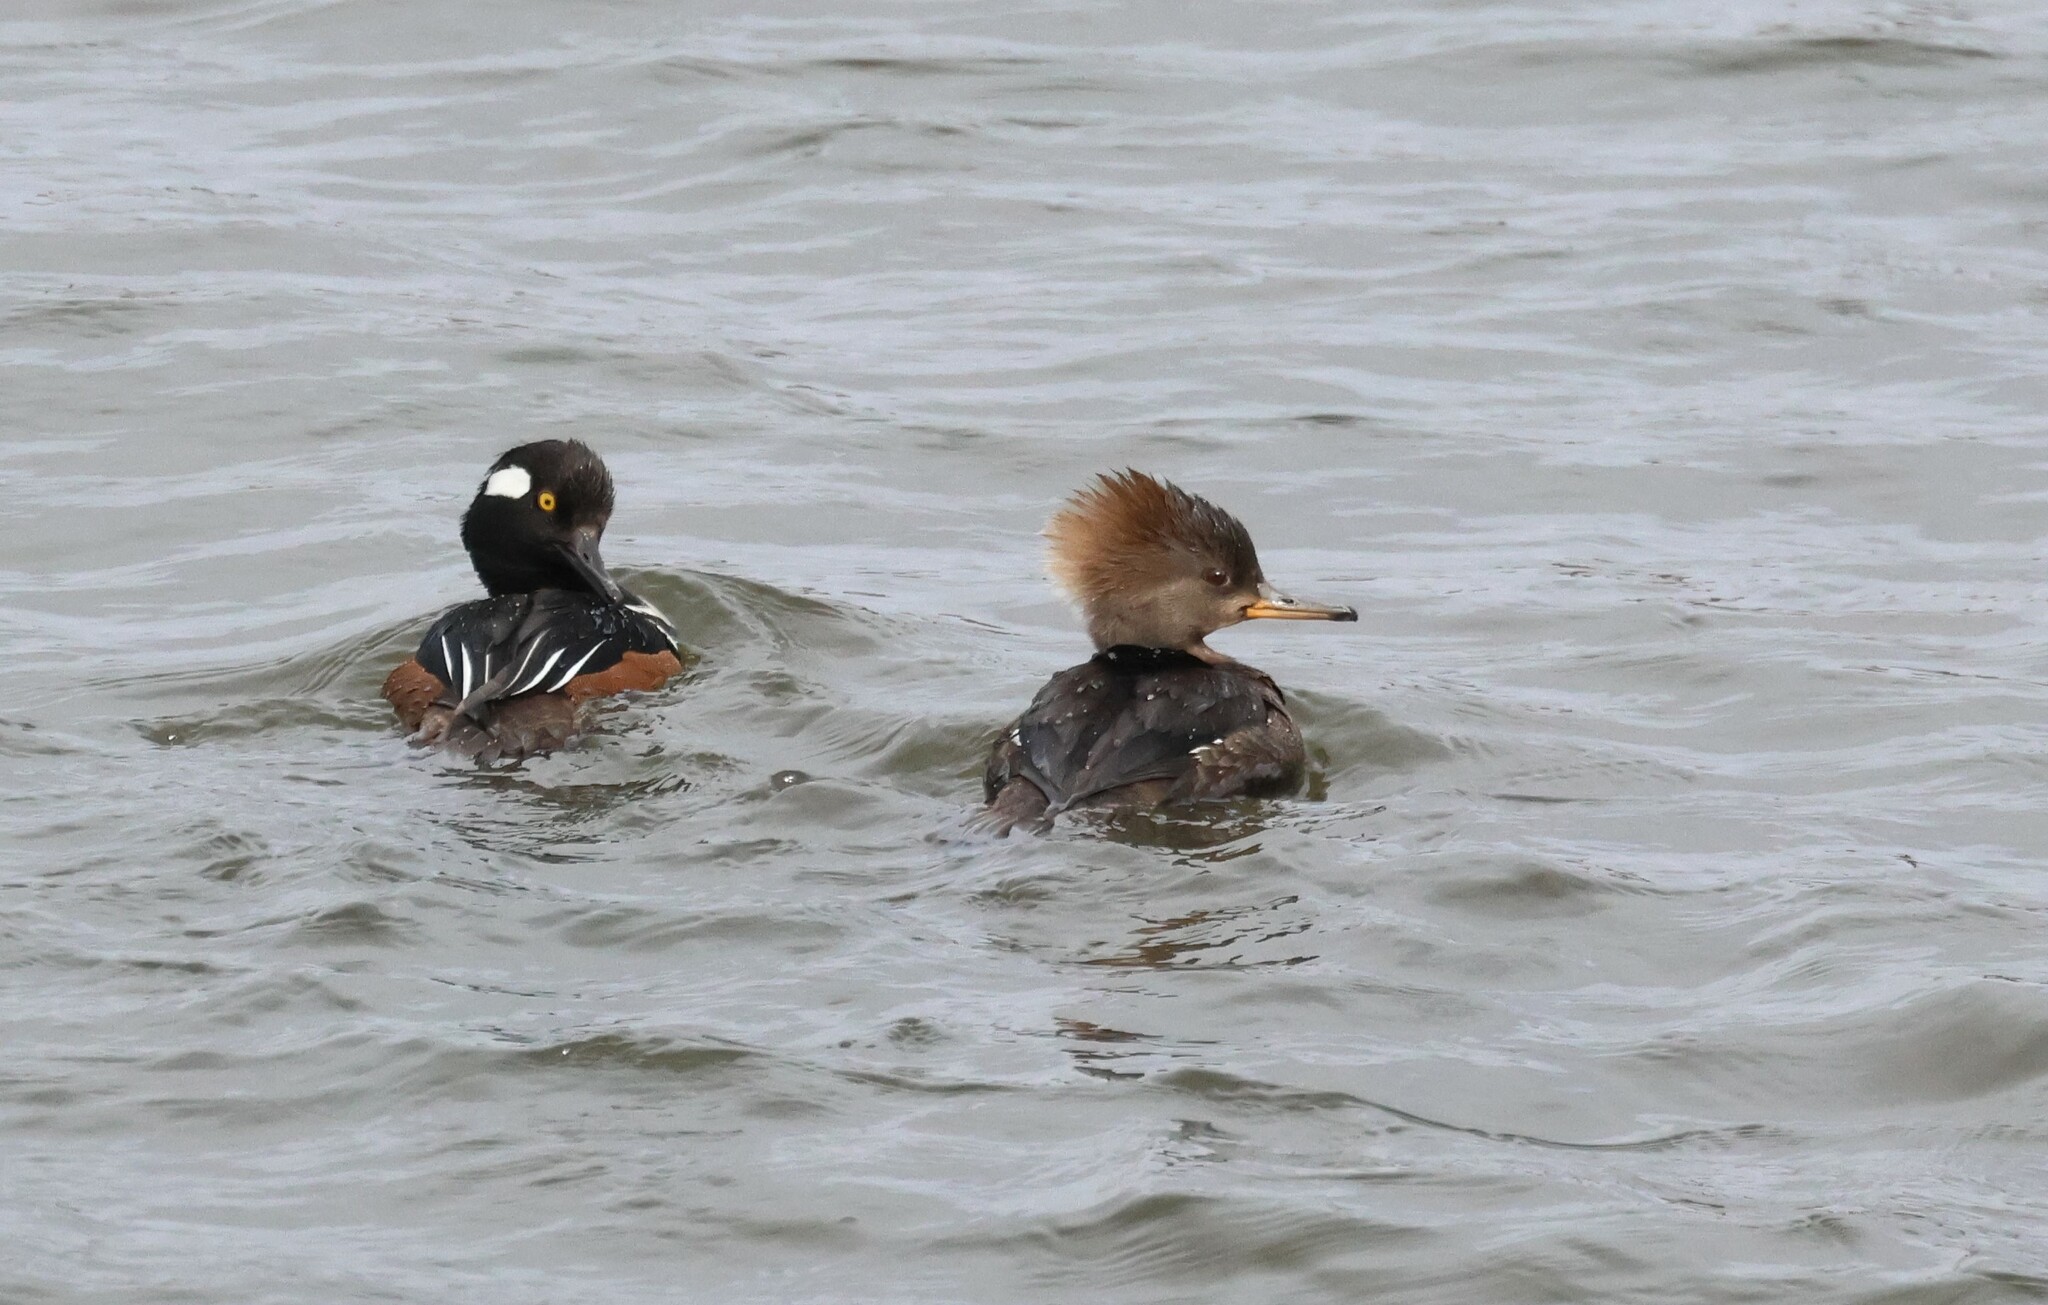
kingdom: Animalia
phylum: Chordata
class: Aves
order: Anseriformes
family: Anatidae
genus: Lophodytes
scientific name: Lophodytes cucullatus
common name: Hooded merganser
